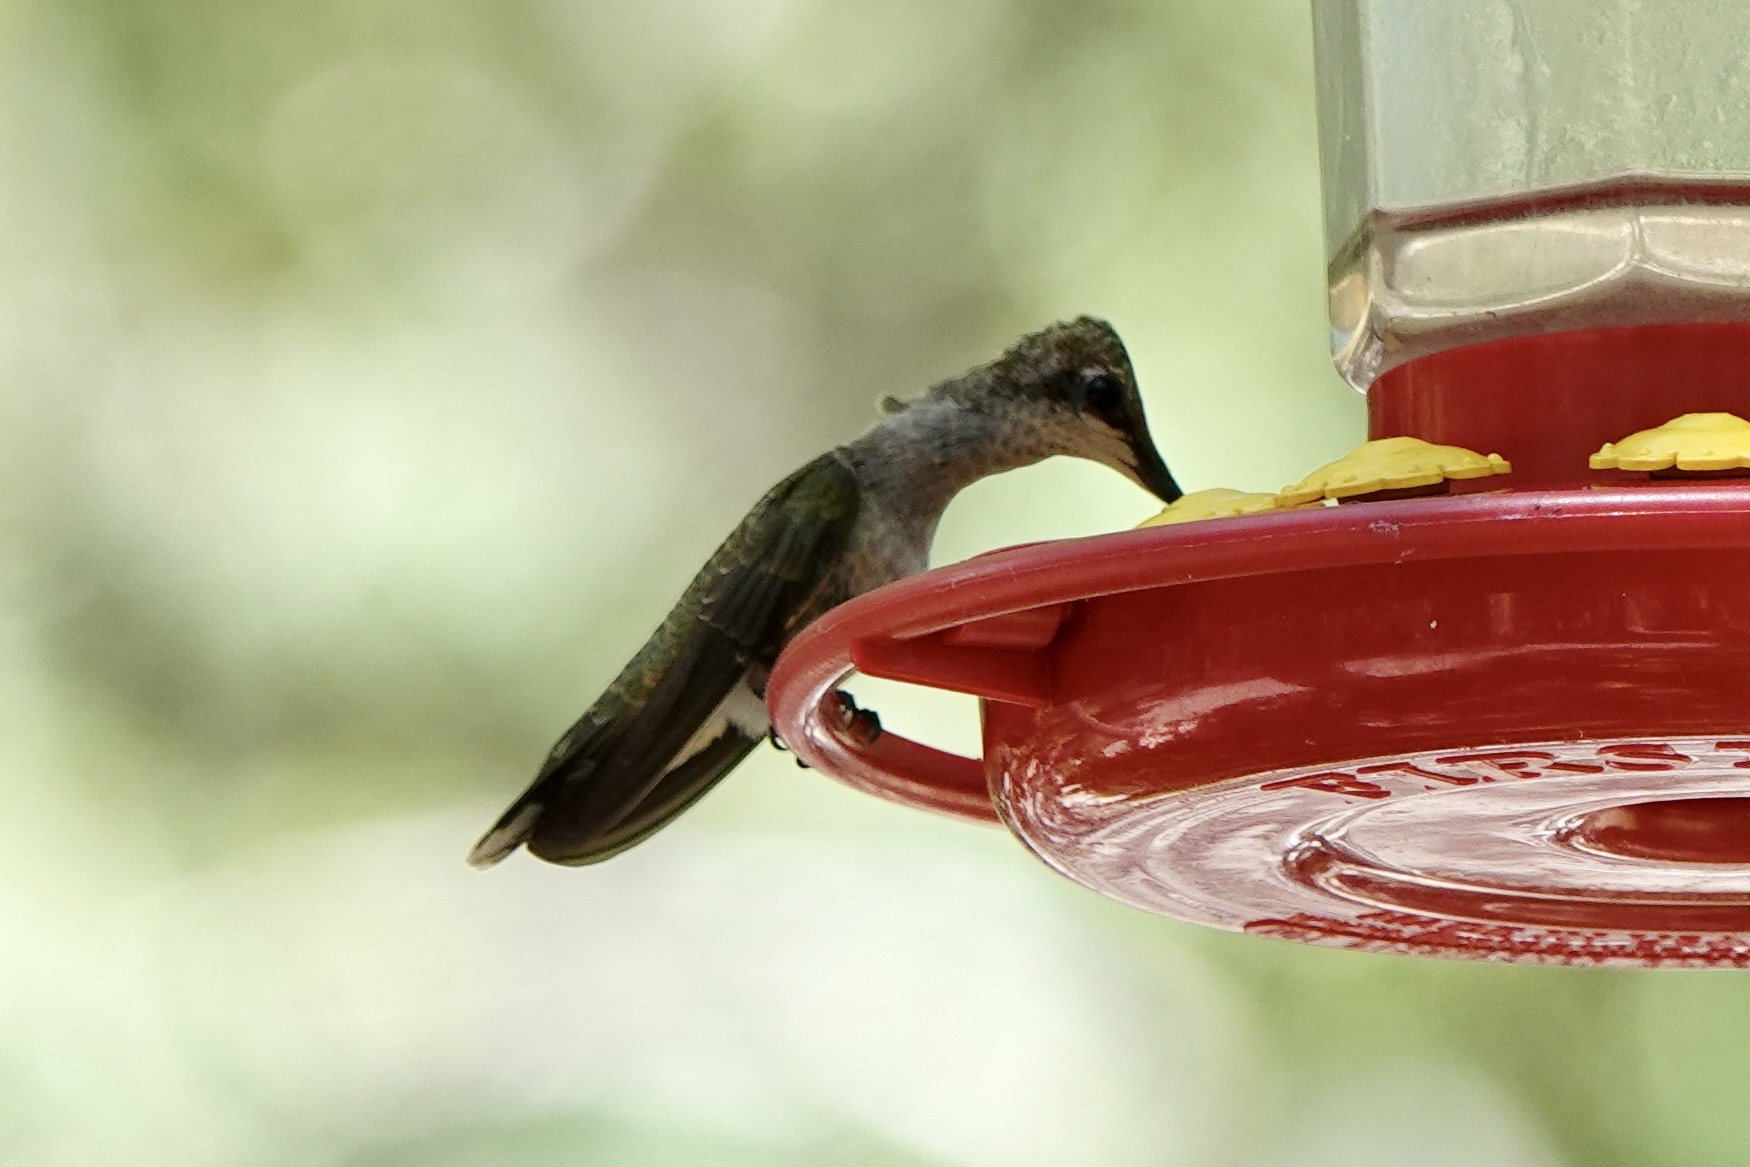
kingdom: Animalia
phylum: Chordata
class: Aves
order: Apodiformes
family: Trochilidae
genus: Archilochus
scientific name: Archilochus alexandri
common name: Black-chinned hummingbird
